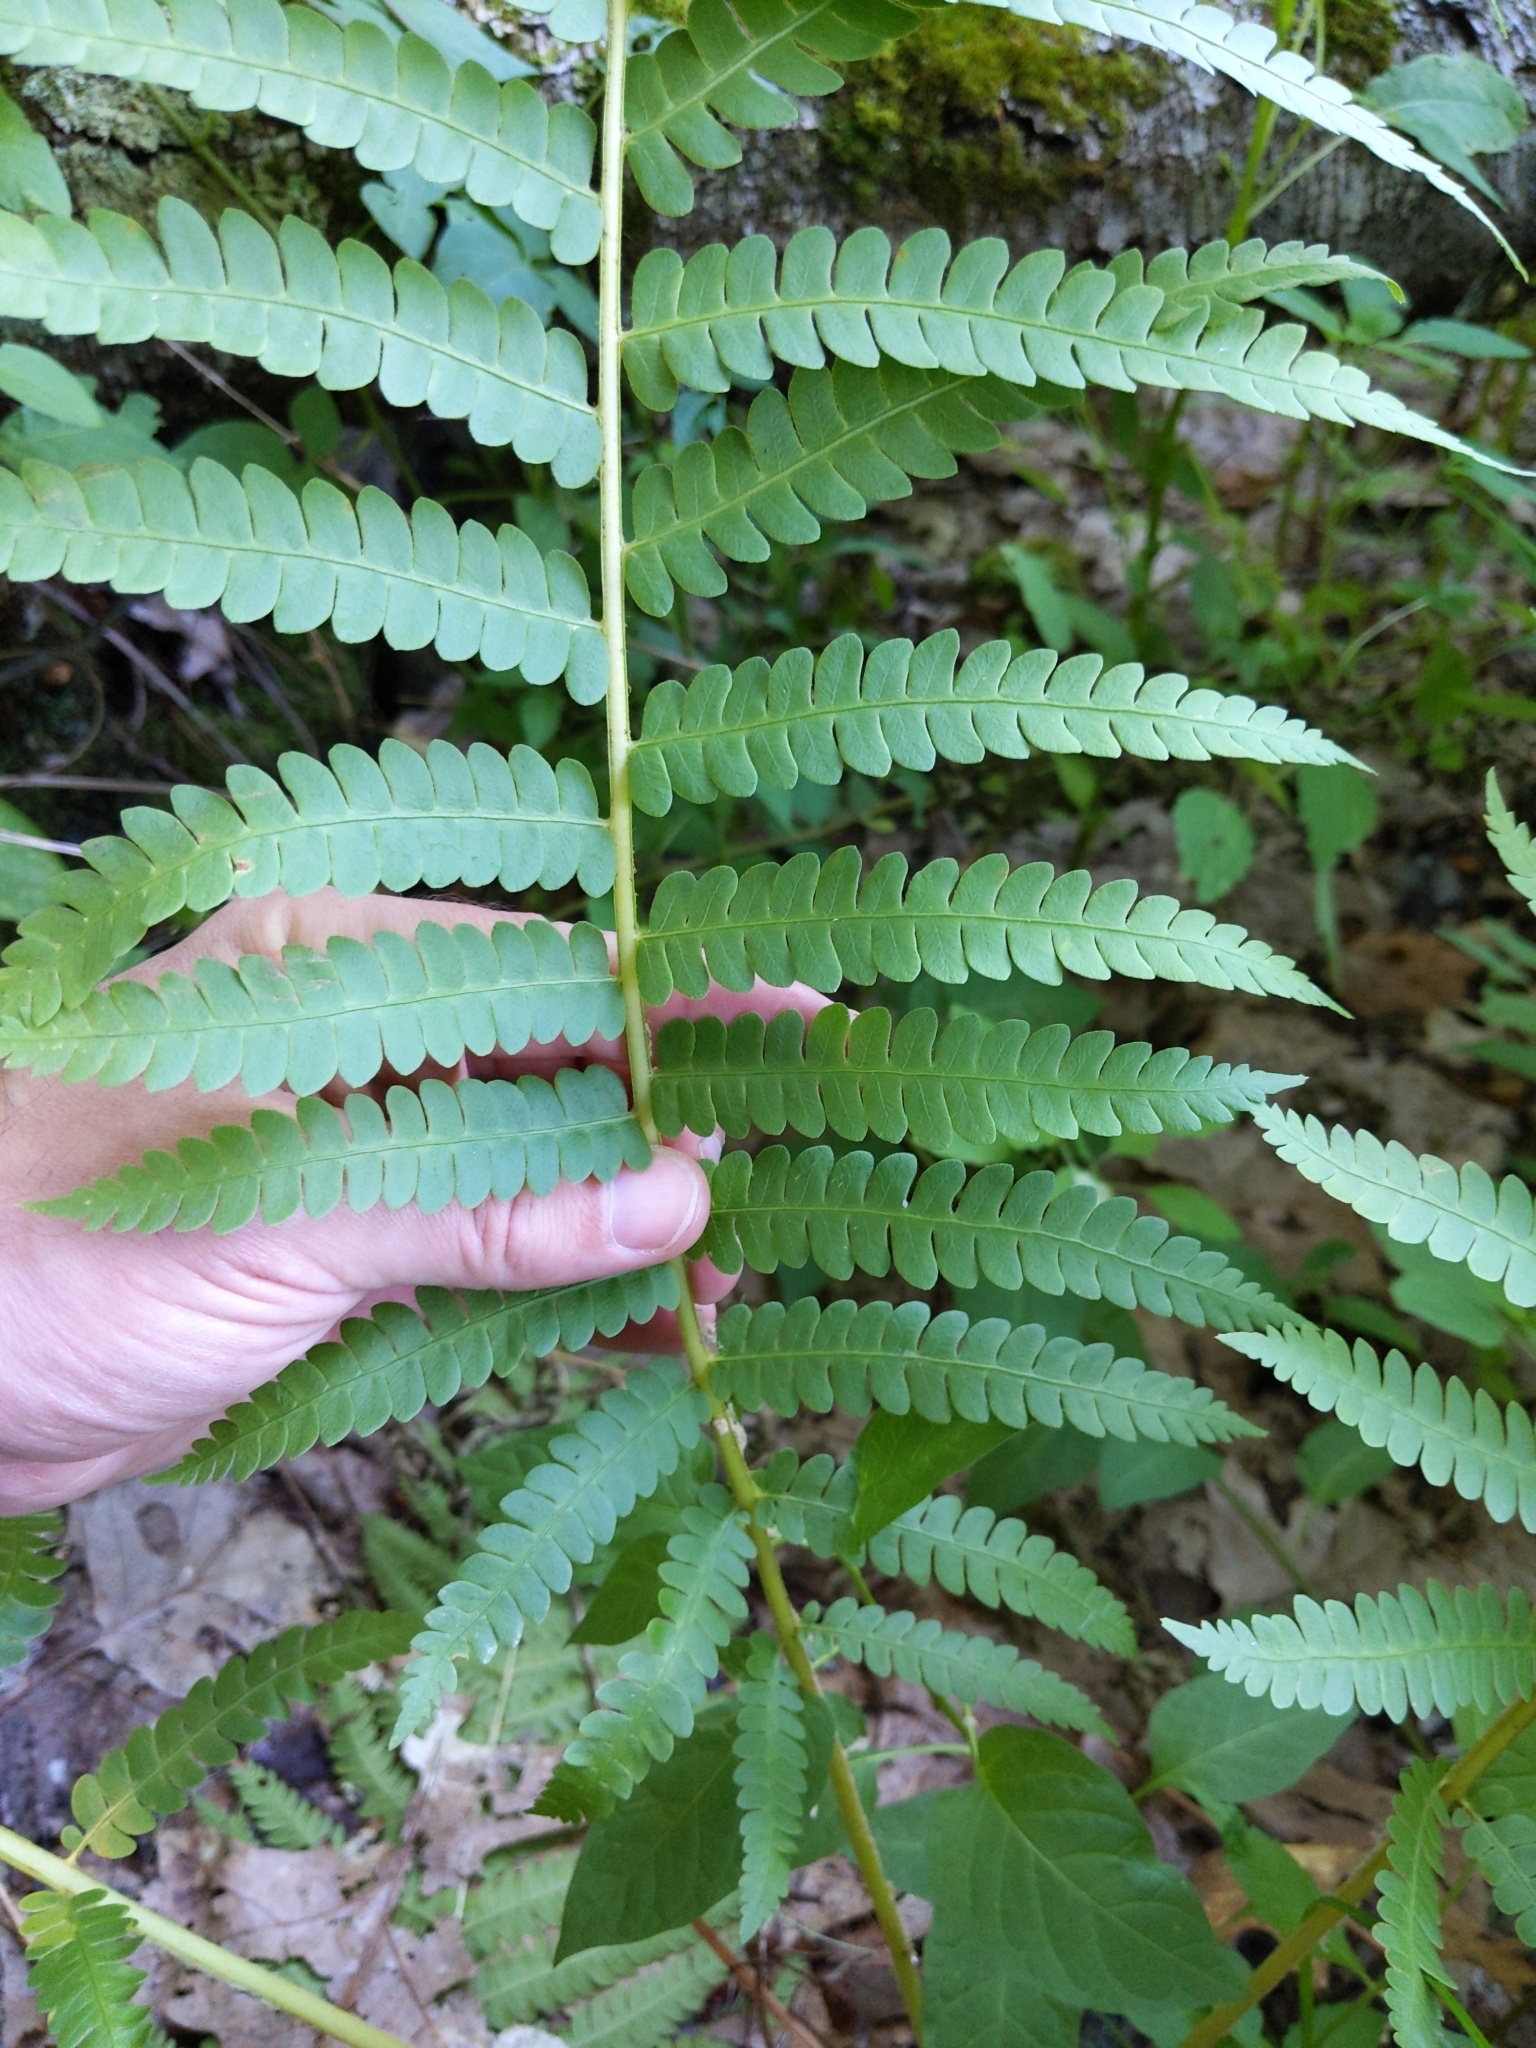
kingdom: Plantae
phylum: Tracheophyta
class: Polypodiopsida
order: Osmundales
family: Osmundaceae
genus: Osmundastrum
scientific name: Osmundastrum cinnamomeum
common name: Cinnamon fern
